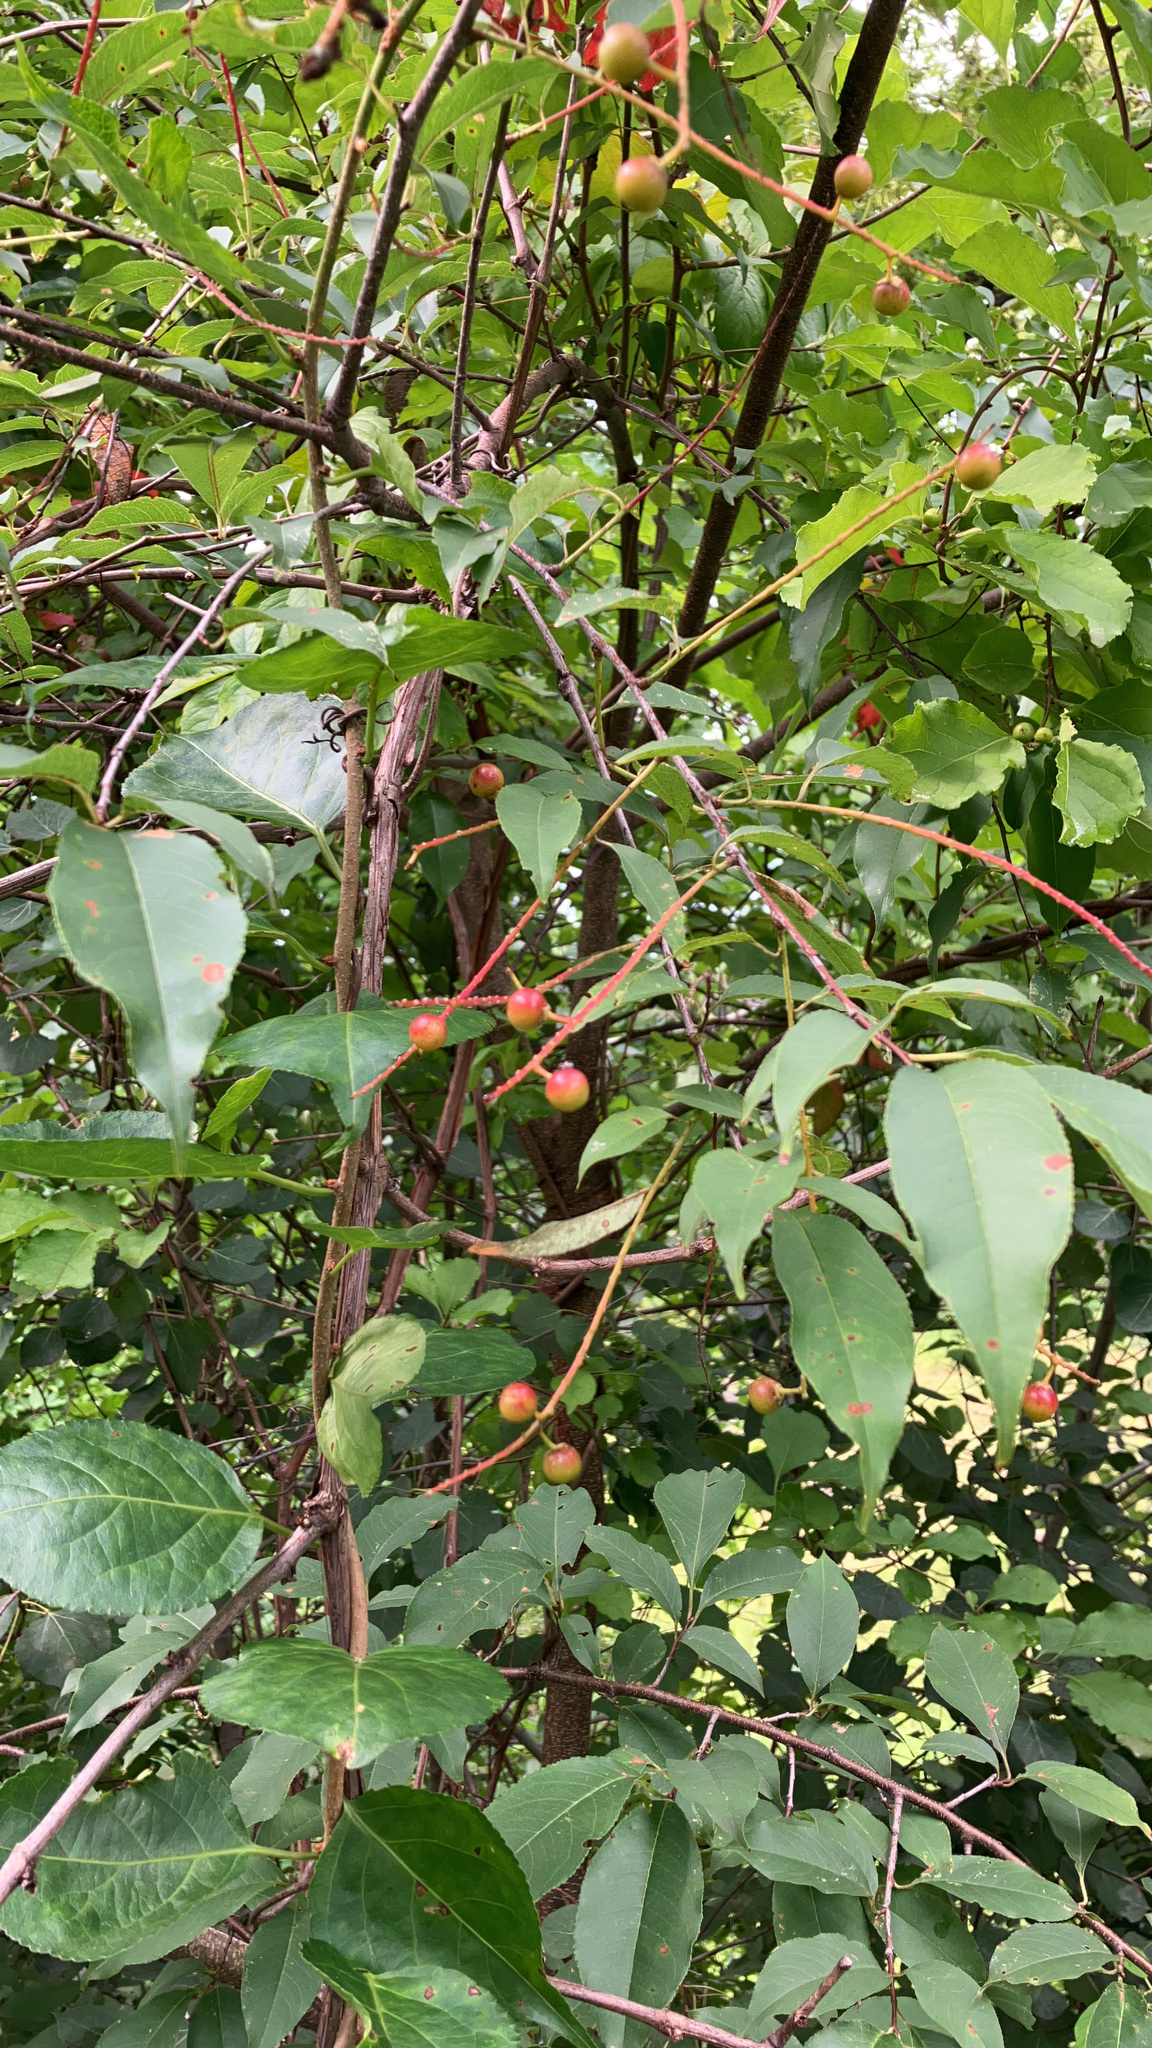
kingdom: Plantae
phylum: Tracheophyta
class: Magnoliopsida
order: Rosales
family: Rosaceae
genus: Prunus
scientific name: Prunus serotina
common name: Black cherry
